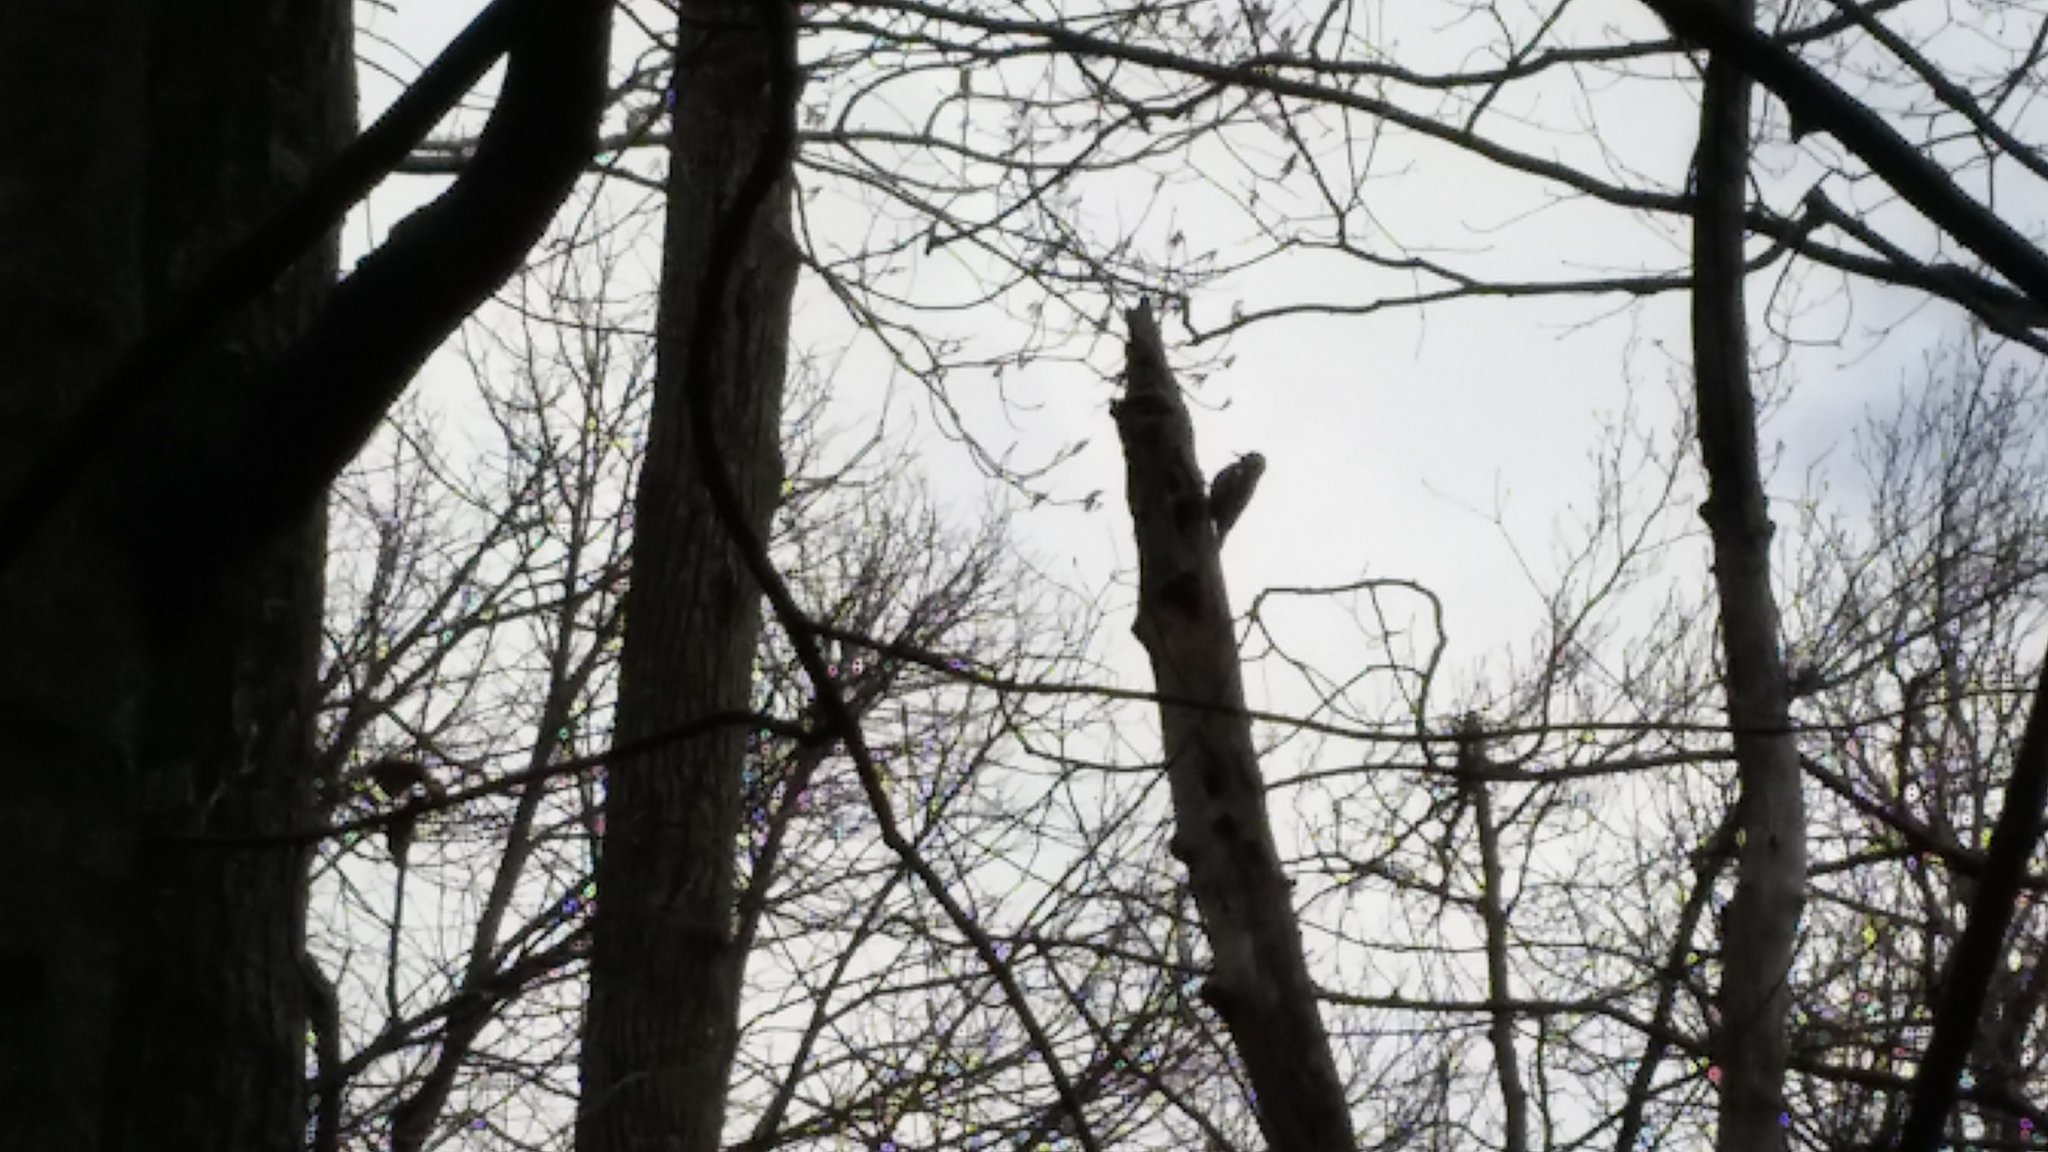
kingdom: Animalia
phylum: Chordata
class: Aves
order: Piciformes
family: Picidae
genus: Sphyrapicus
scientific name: Sphyrapicus varius
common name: Yellow-bellied sapsucker
